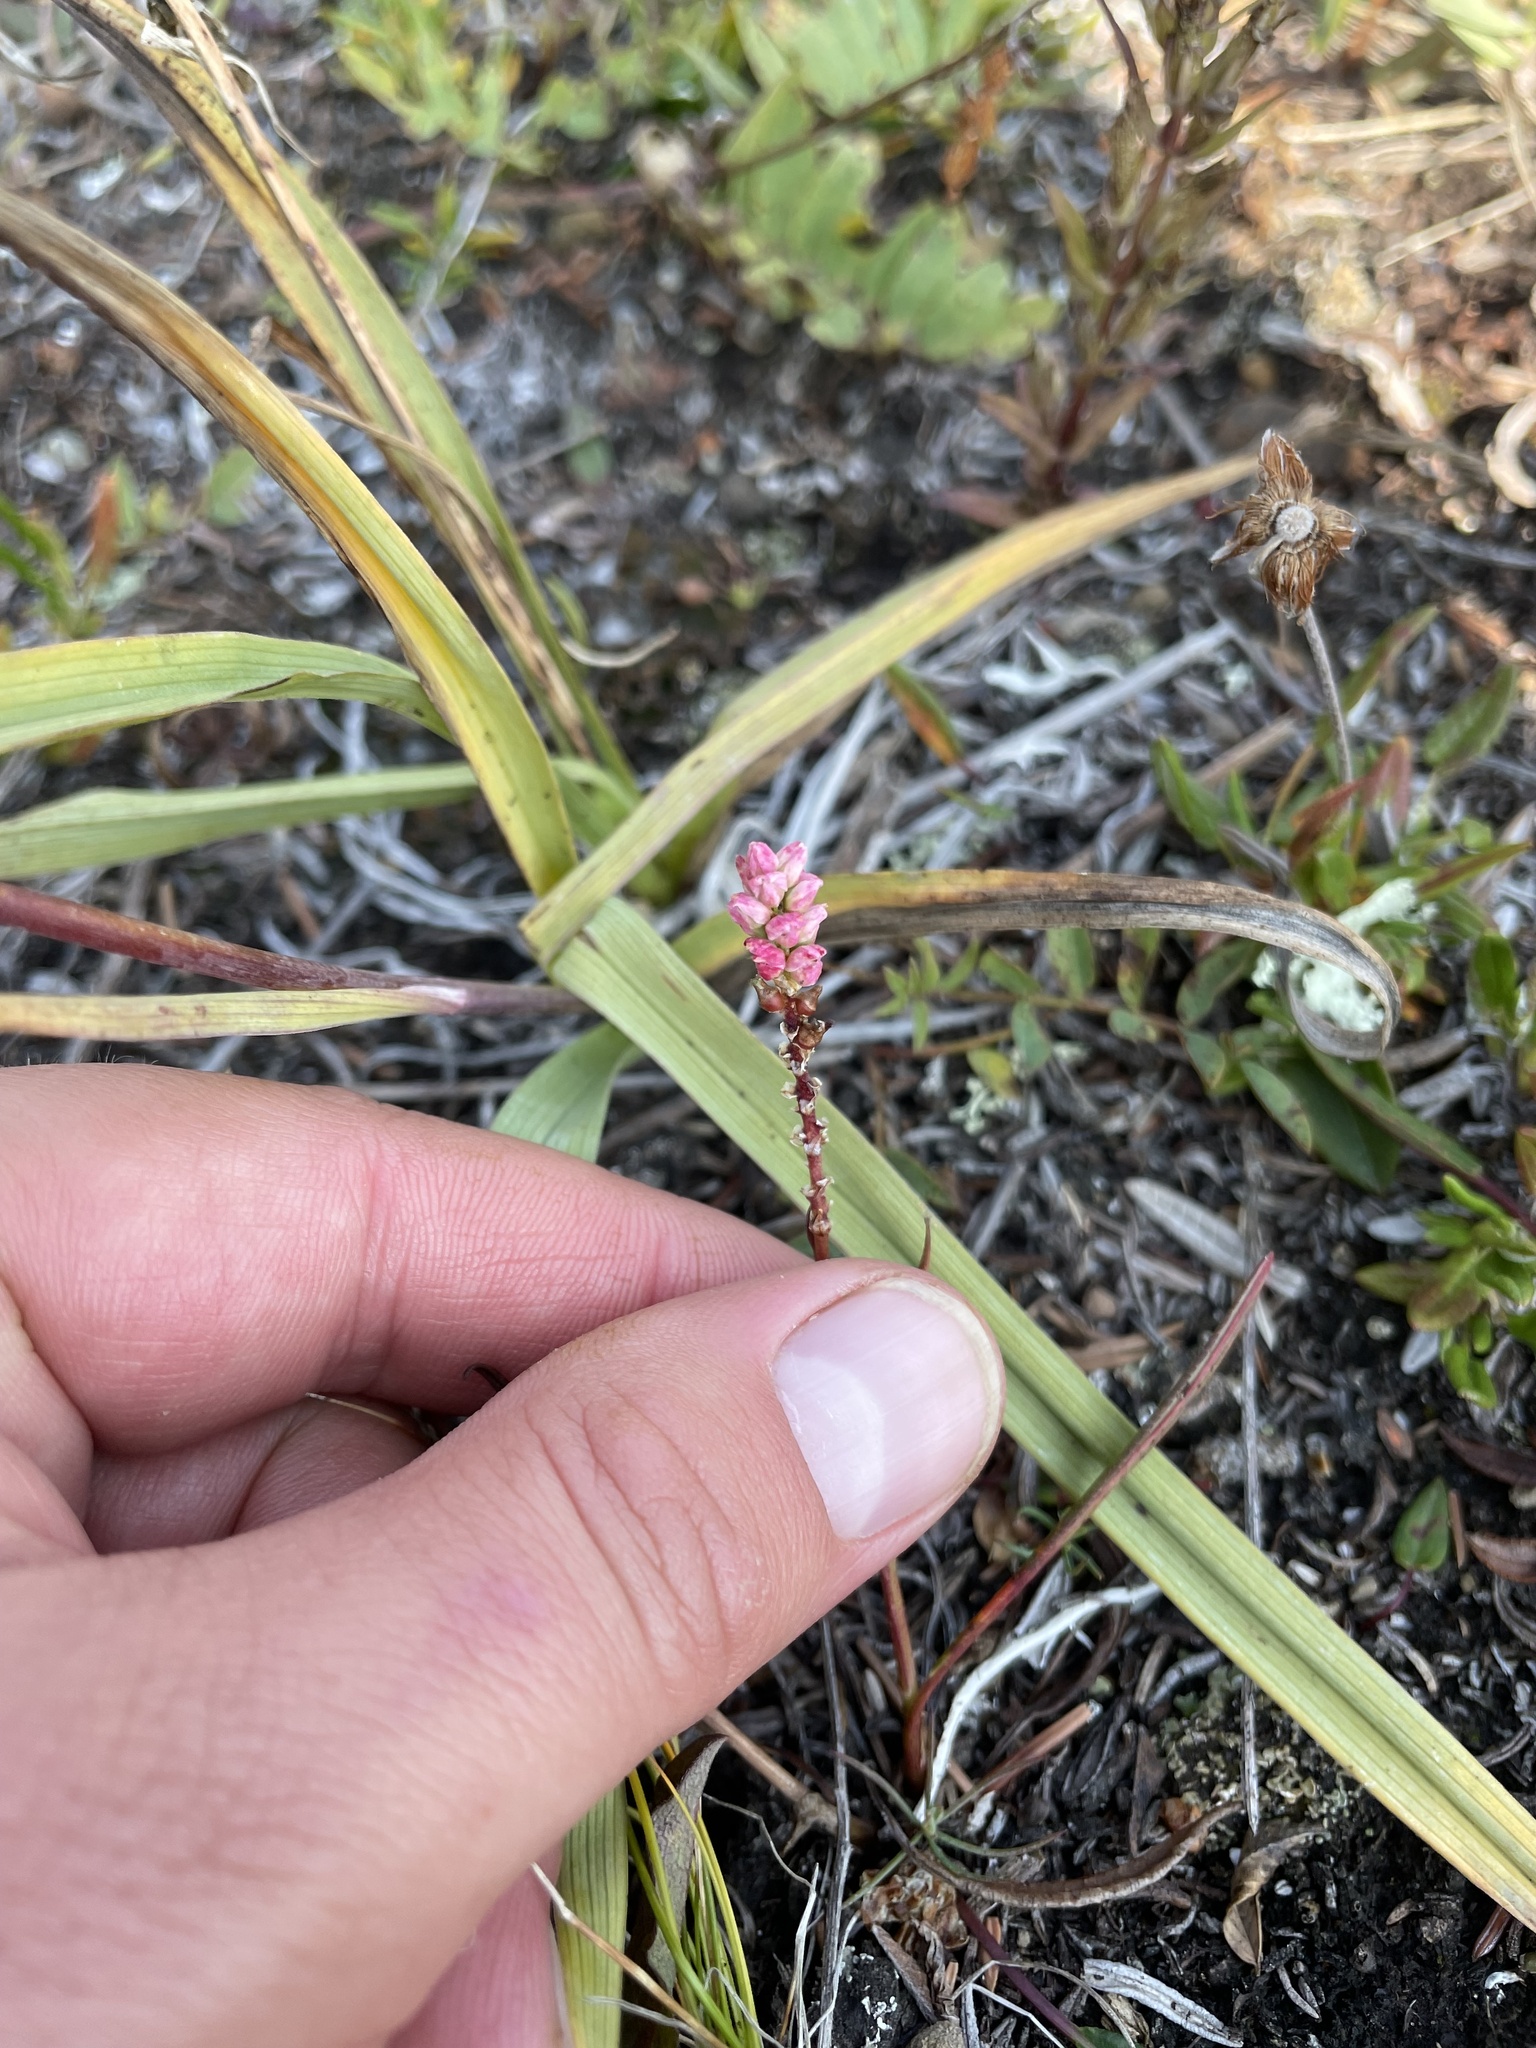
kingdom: Plantae
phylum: Tracheophyta
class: Magnoliopsida
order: Caryophyllales
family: Polygonaceae
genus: Bistorta
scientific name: Bistorta vivipara
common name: Alpine bistort
